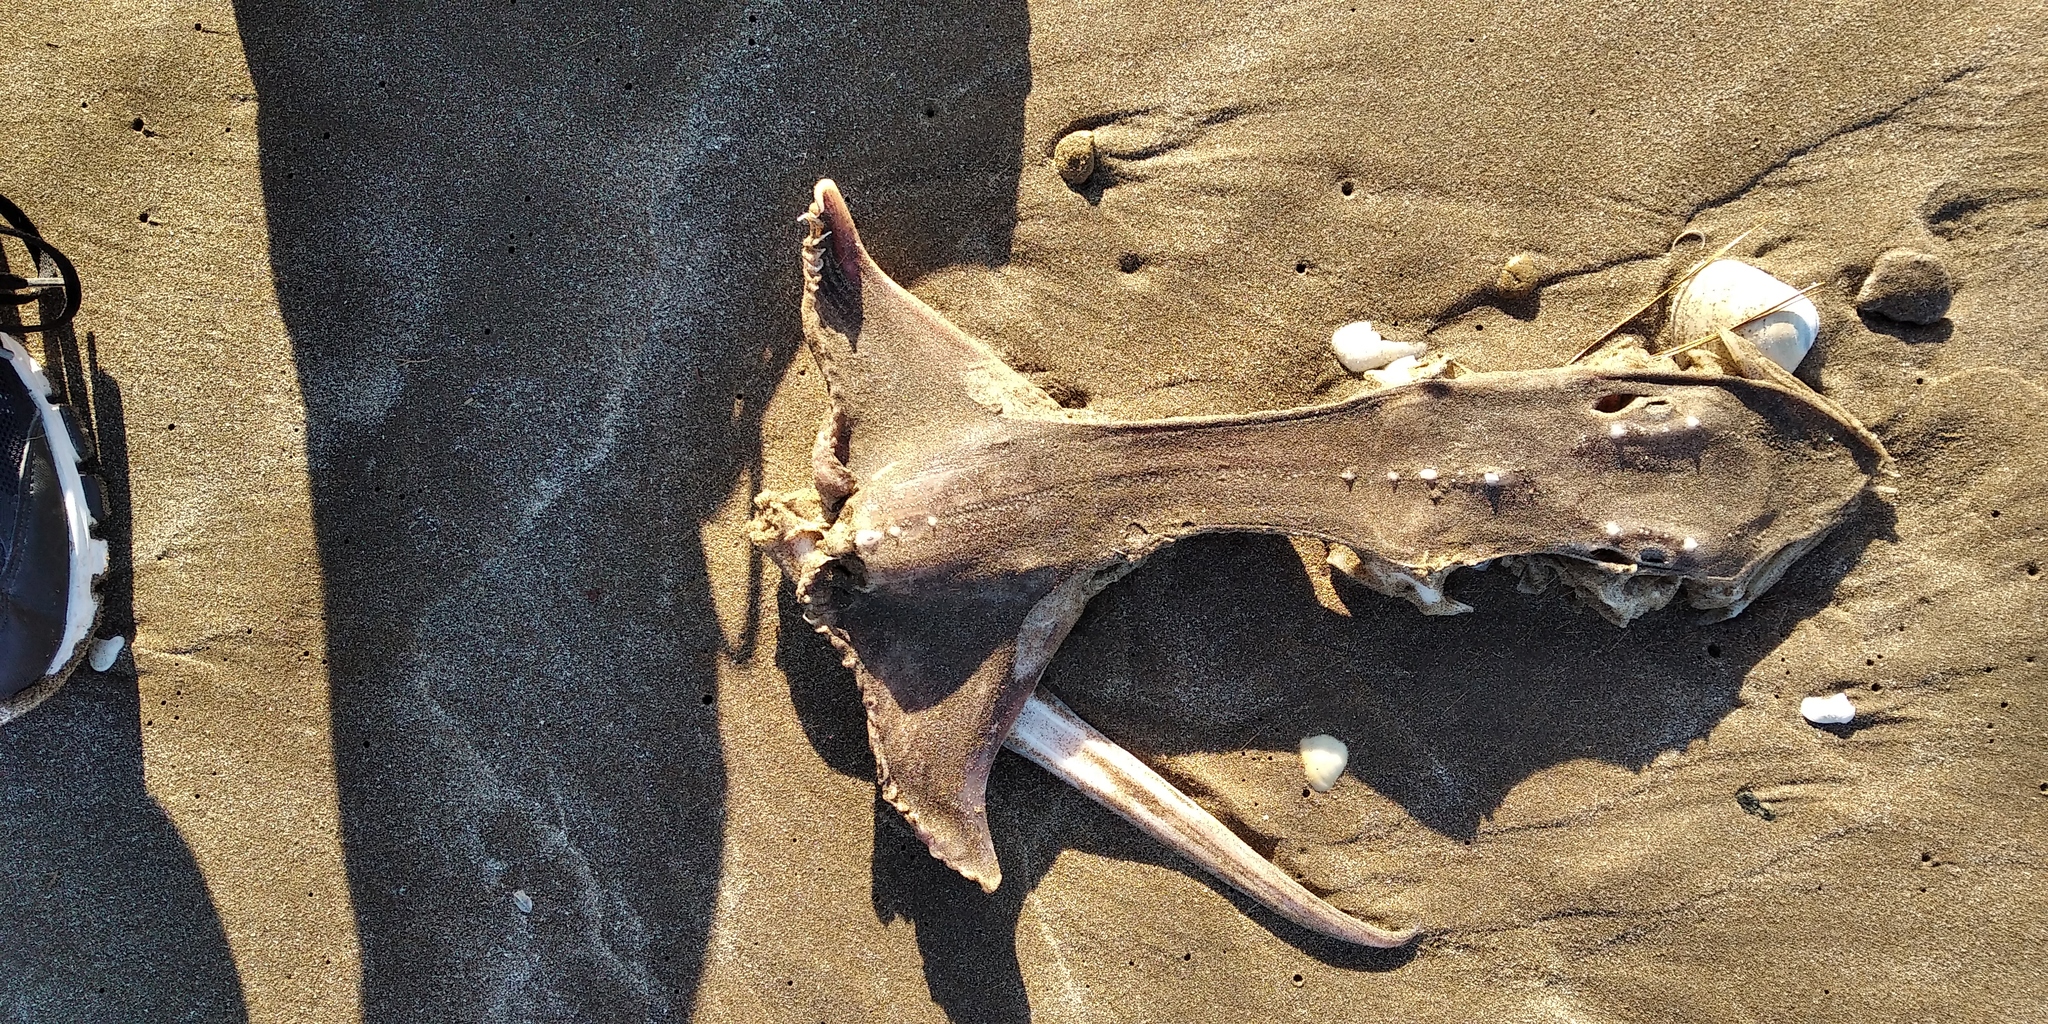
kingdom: Animalia
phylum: Chordata
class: Elasmobranchii
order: Rajiformes
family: Arhynchobatidae
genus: Sympterygia
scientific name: Sympterygia bonapartii
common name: Smallnose fanskate
